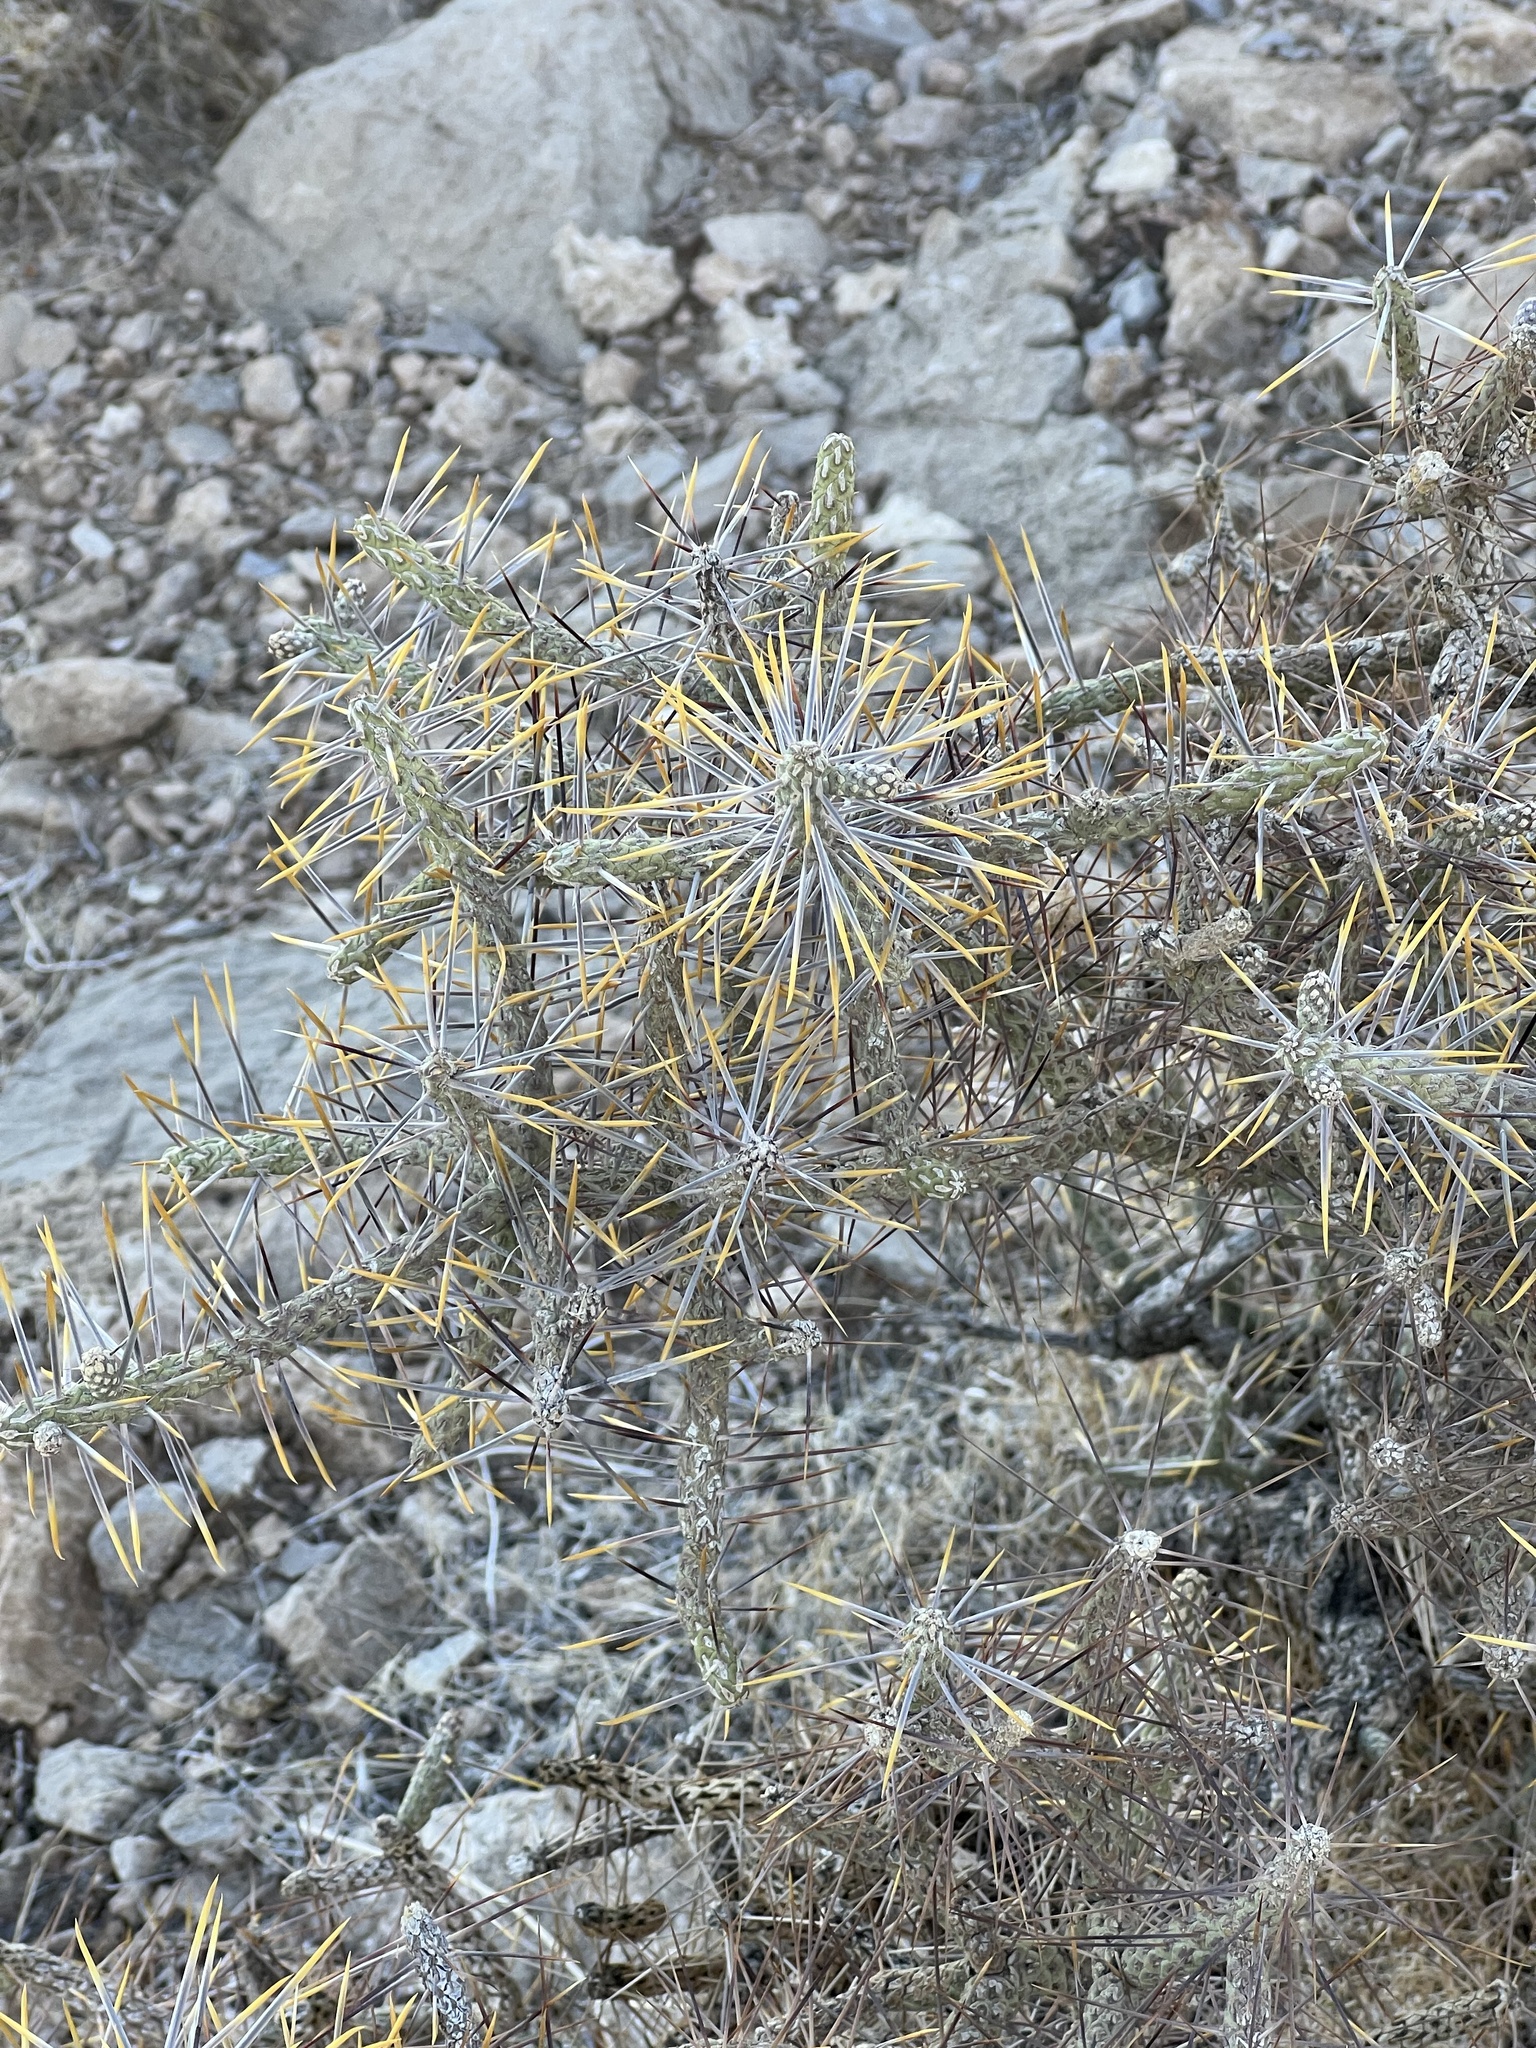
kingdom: Plantae
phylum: Tracheophyta
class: Magnoliopsida
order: Caryophyllales
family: Cactaceae
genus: Cylindropuntia
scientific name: Cylindropuntia ramosissima
